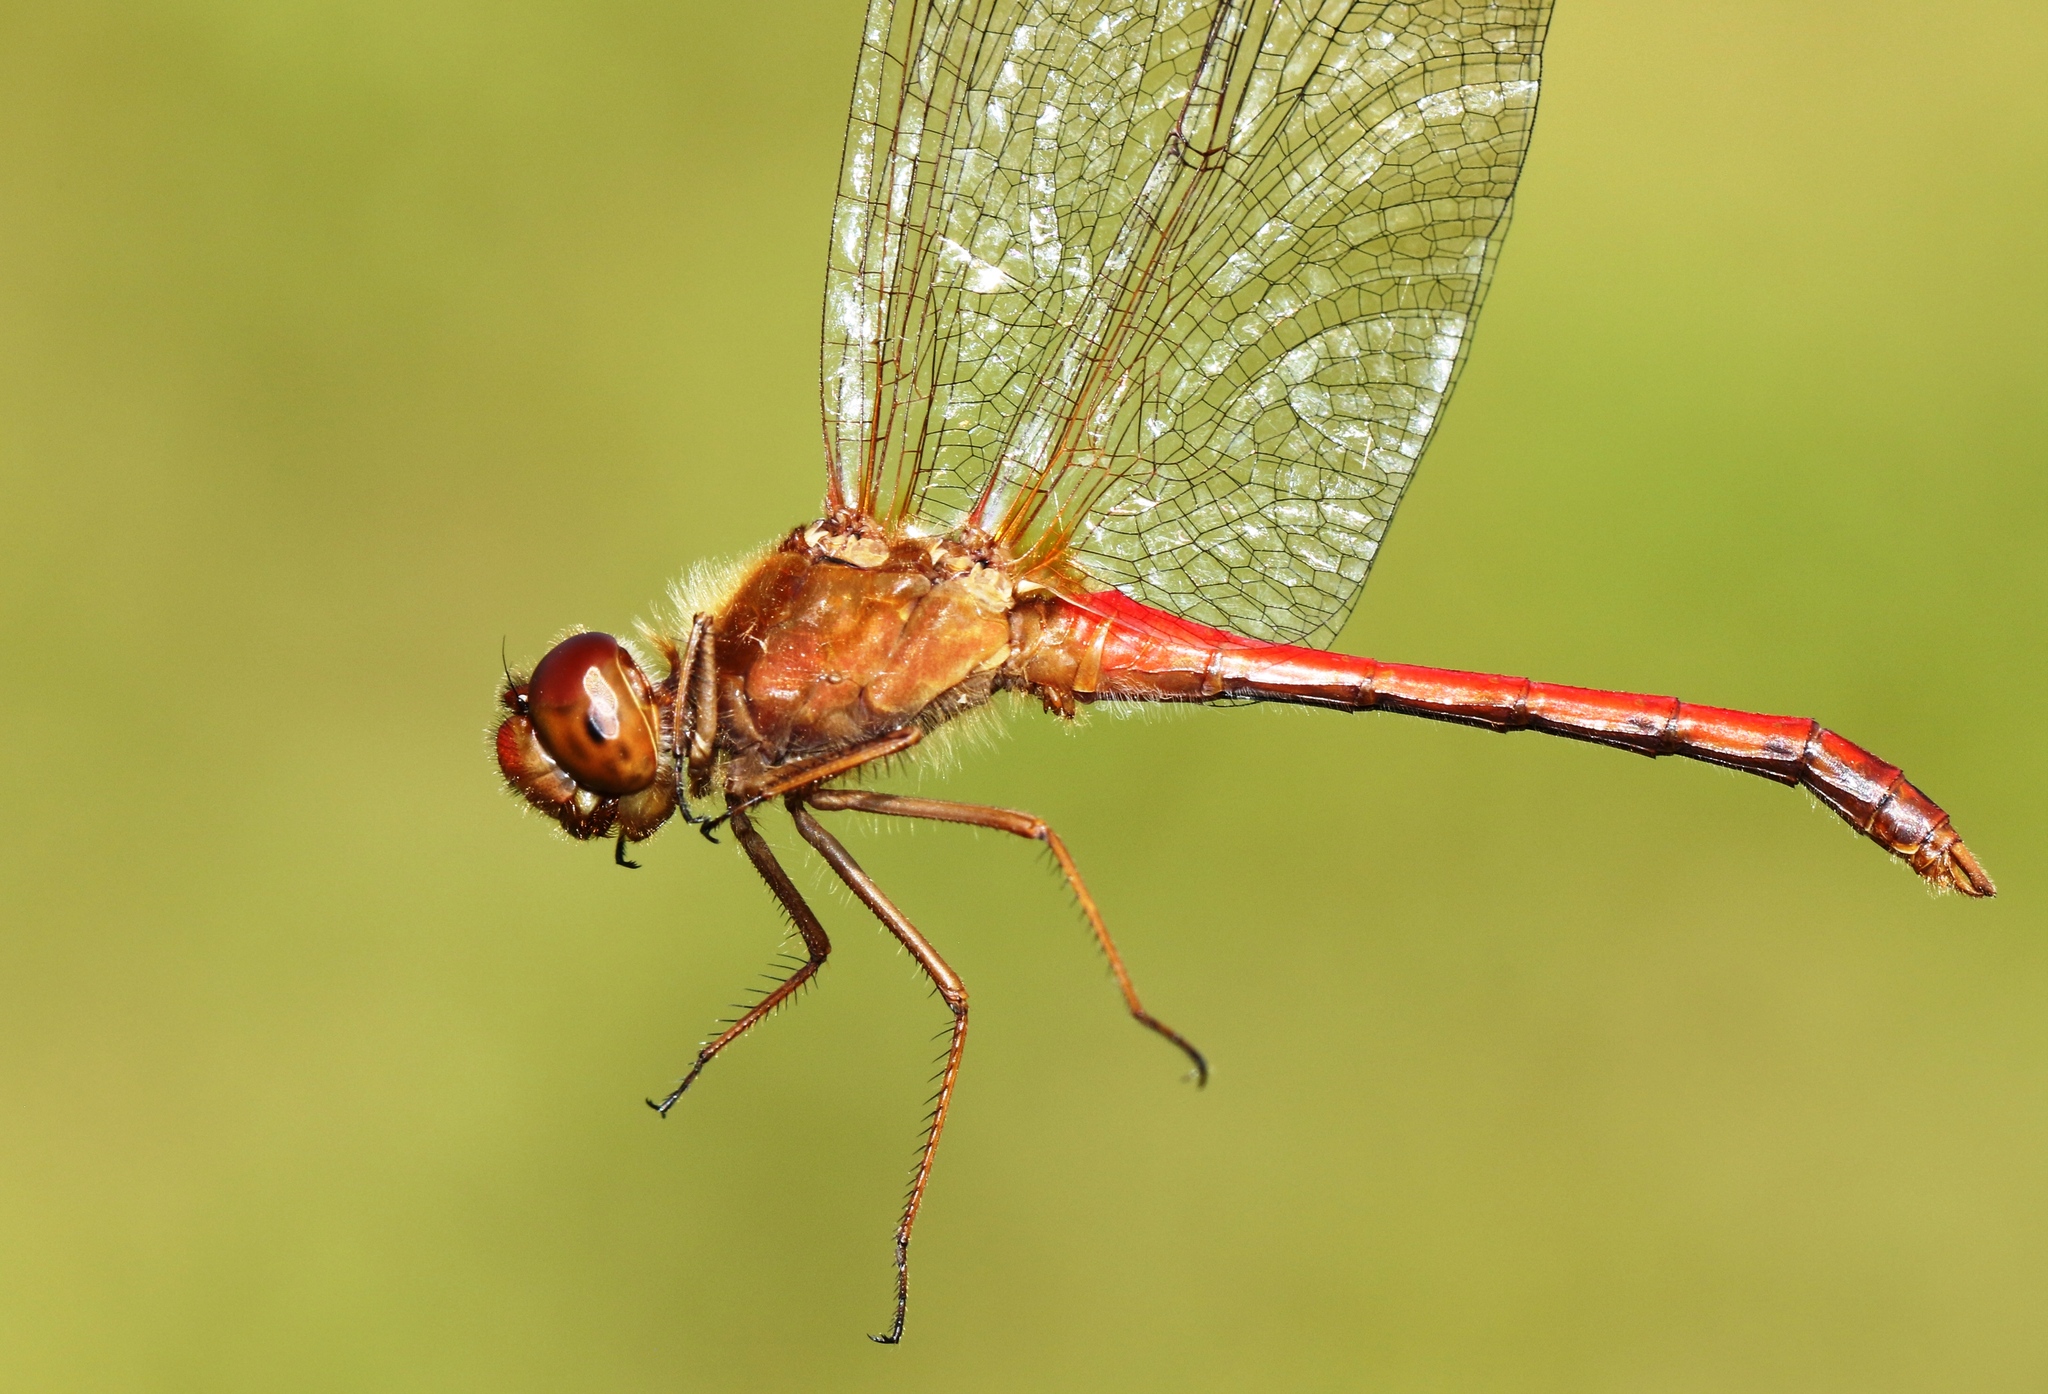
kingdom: Animalia
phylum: Arthropoda
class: Insecta
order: Odonata
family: Libellulidae
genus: Sympetrum
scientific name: Sympetrum vicinum
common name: Autumn meadowhawk
